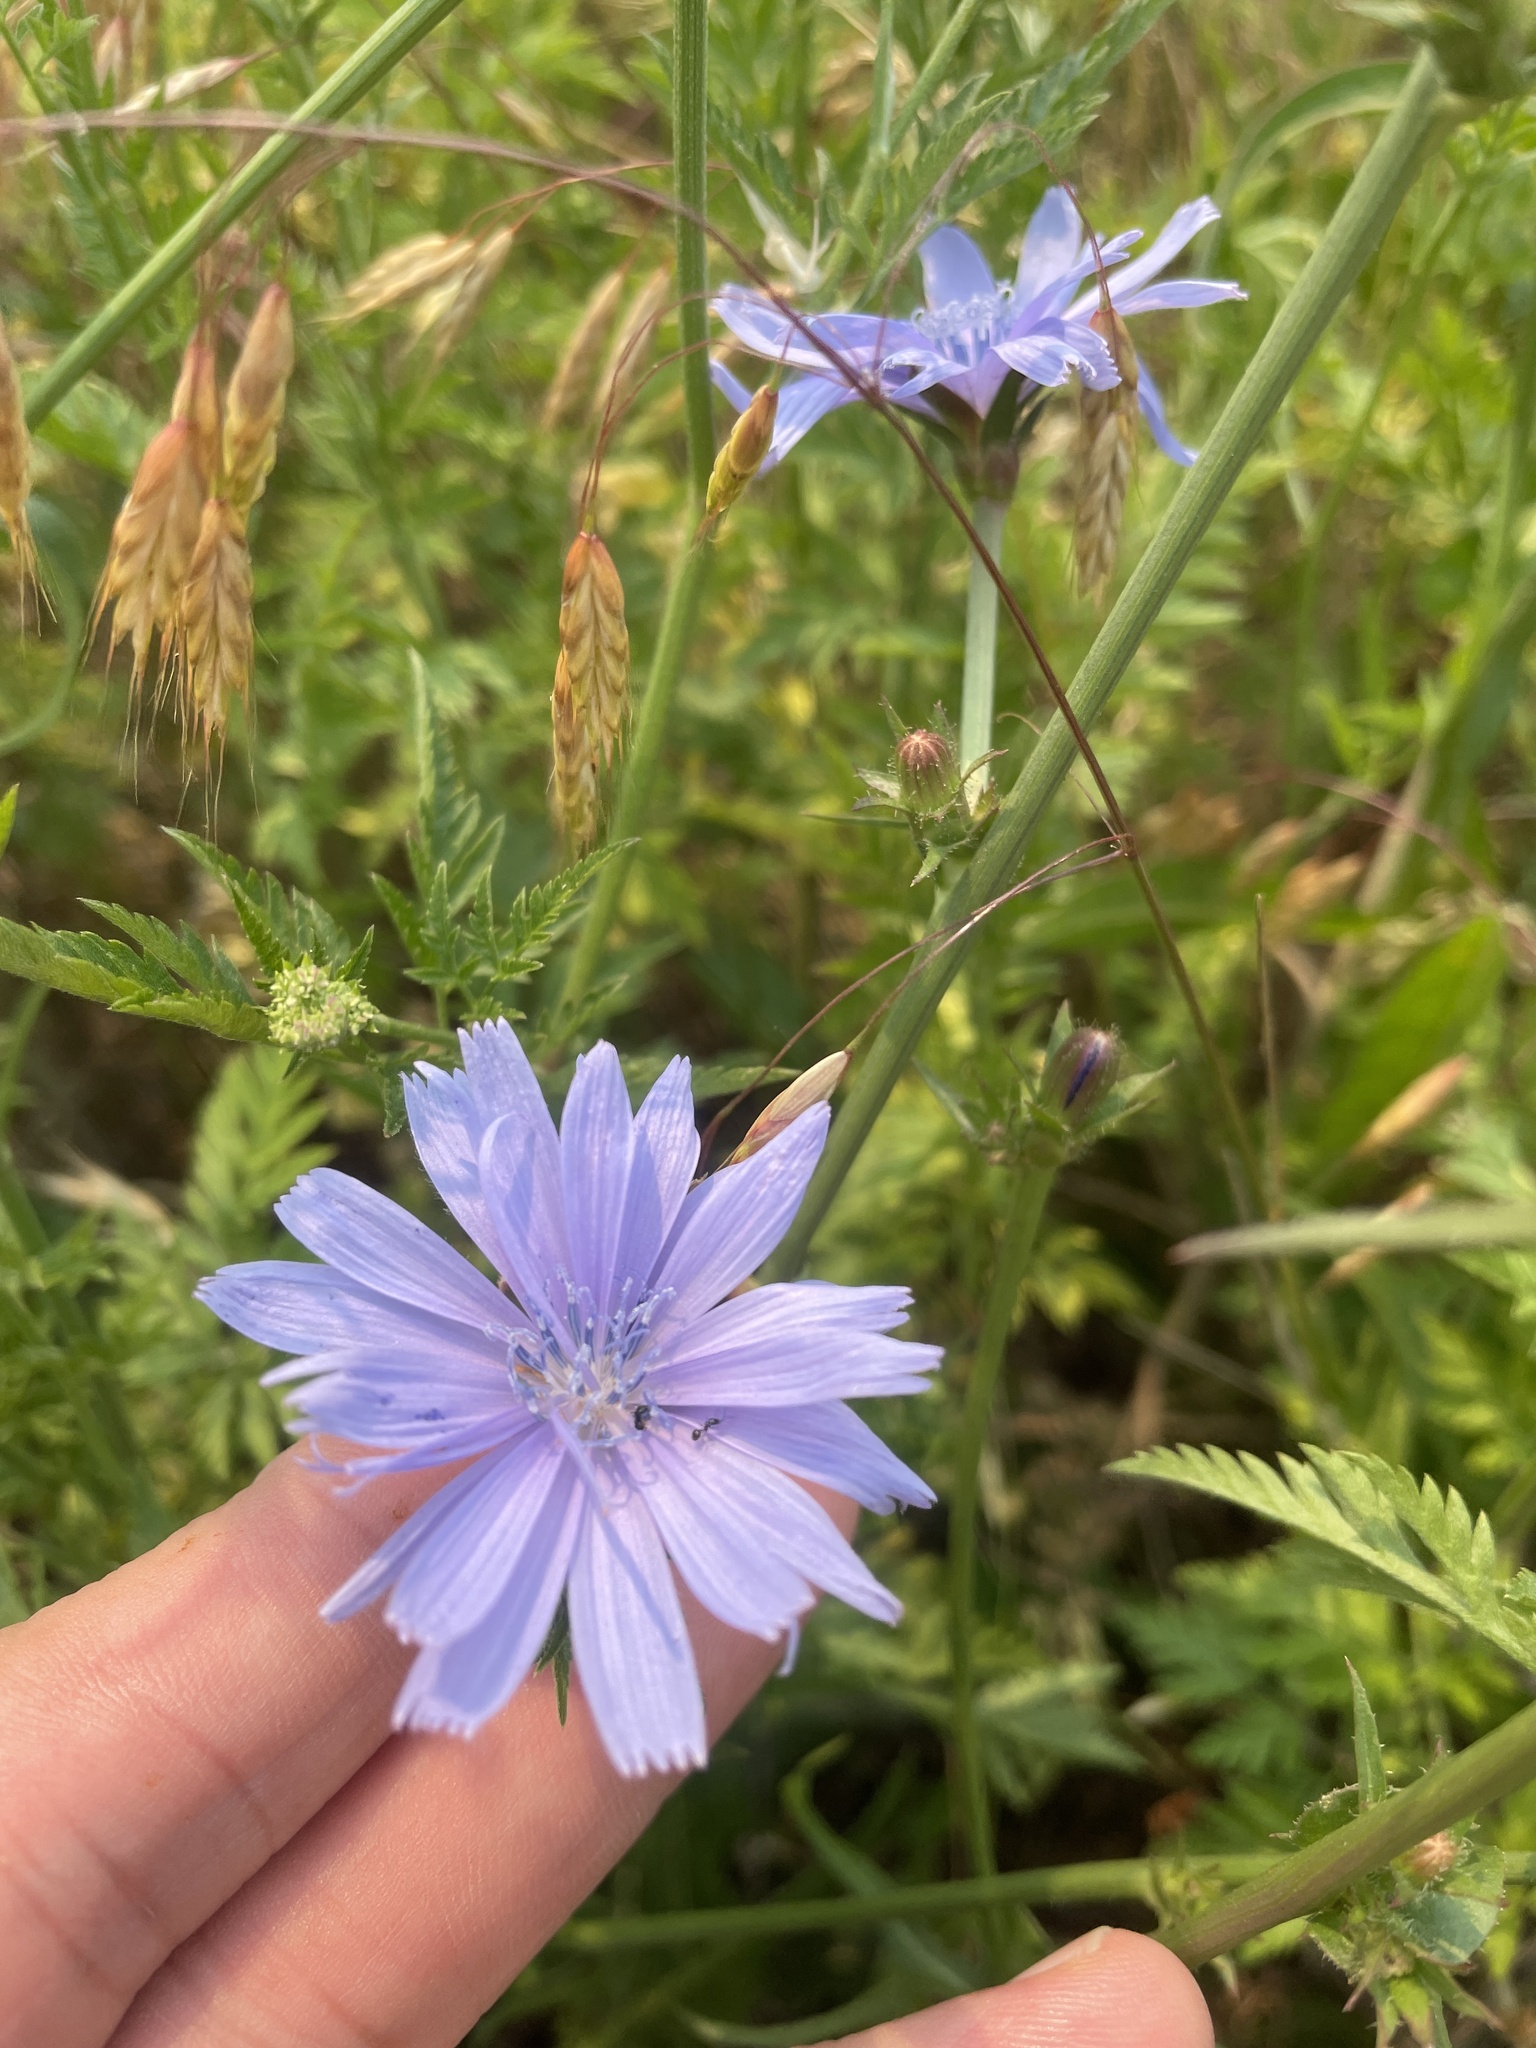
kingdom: Plantae
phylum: Tracheophyta
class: Magnoliopsida
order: Asterales
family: Asteraceae
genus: Cichorium
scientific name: Cichorium intybus
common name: Chicory
